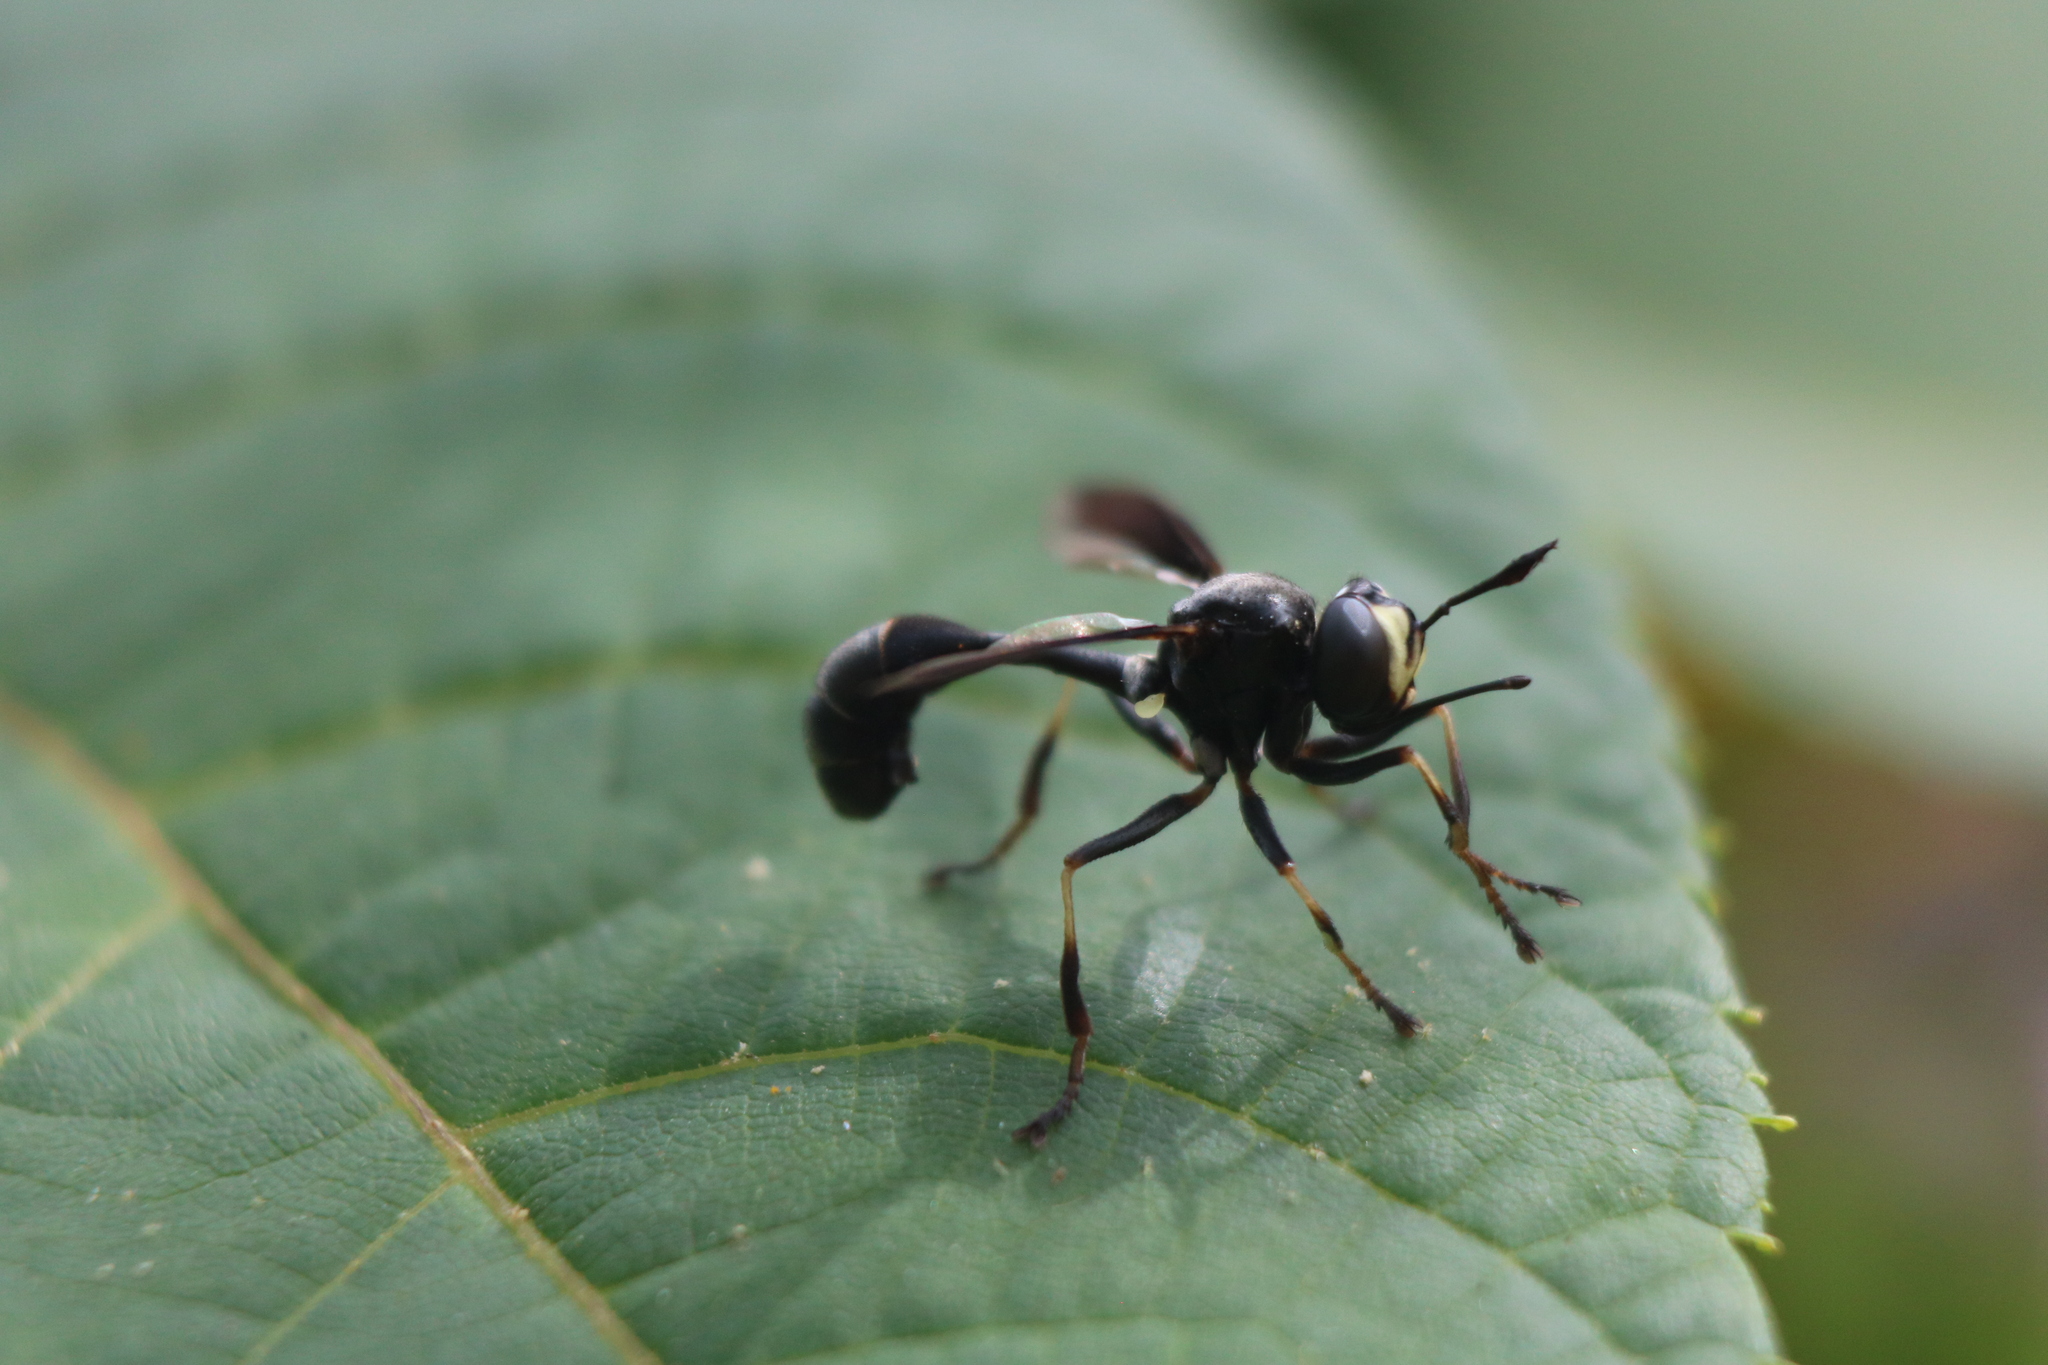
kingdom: Animalia
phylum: Arthropoda
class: Insecta
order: Diptera
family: Conopidae
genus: Physocephala
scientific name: Physocephala tibialis
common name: Common eastern physocephala
